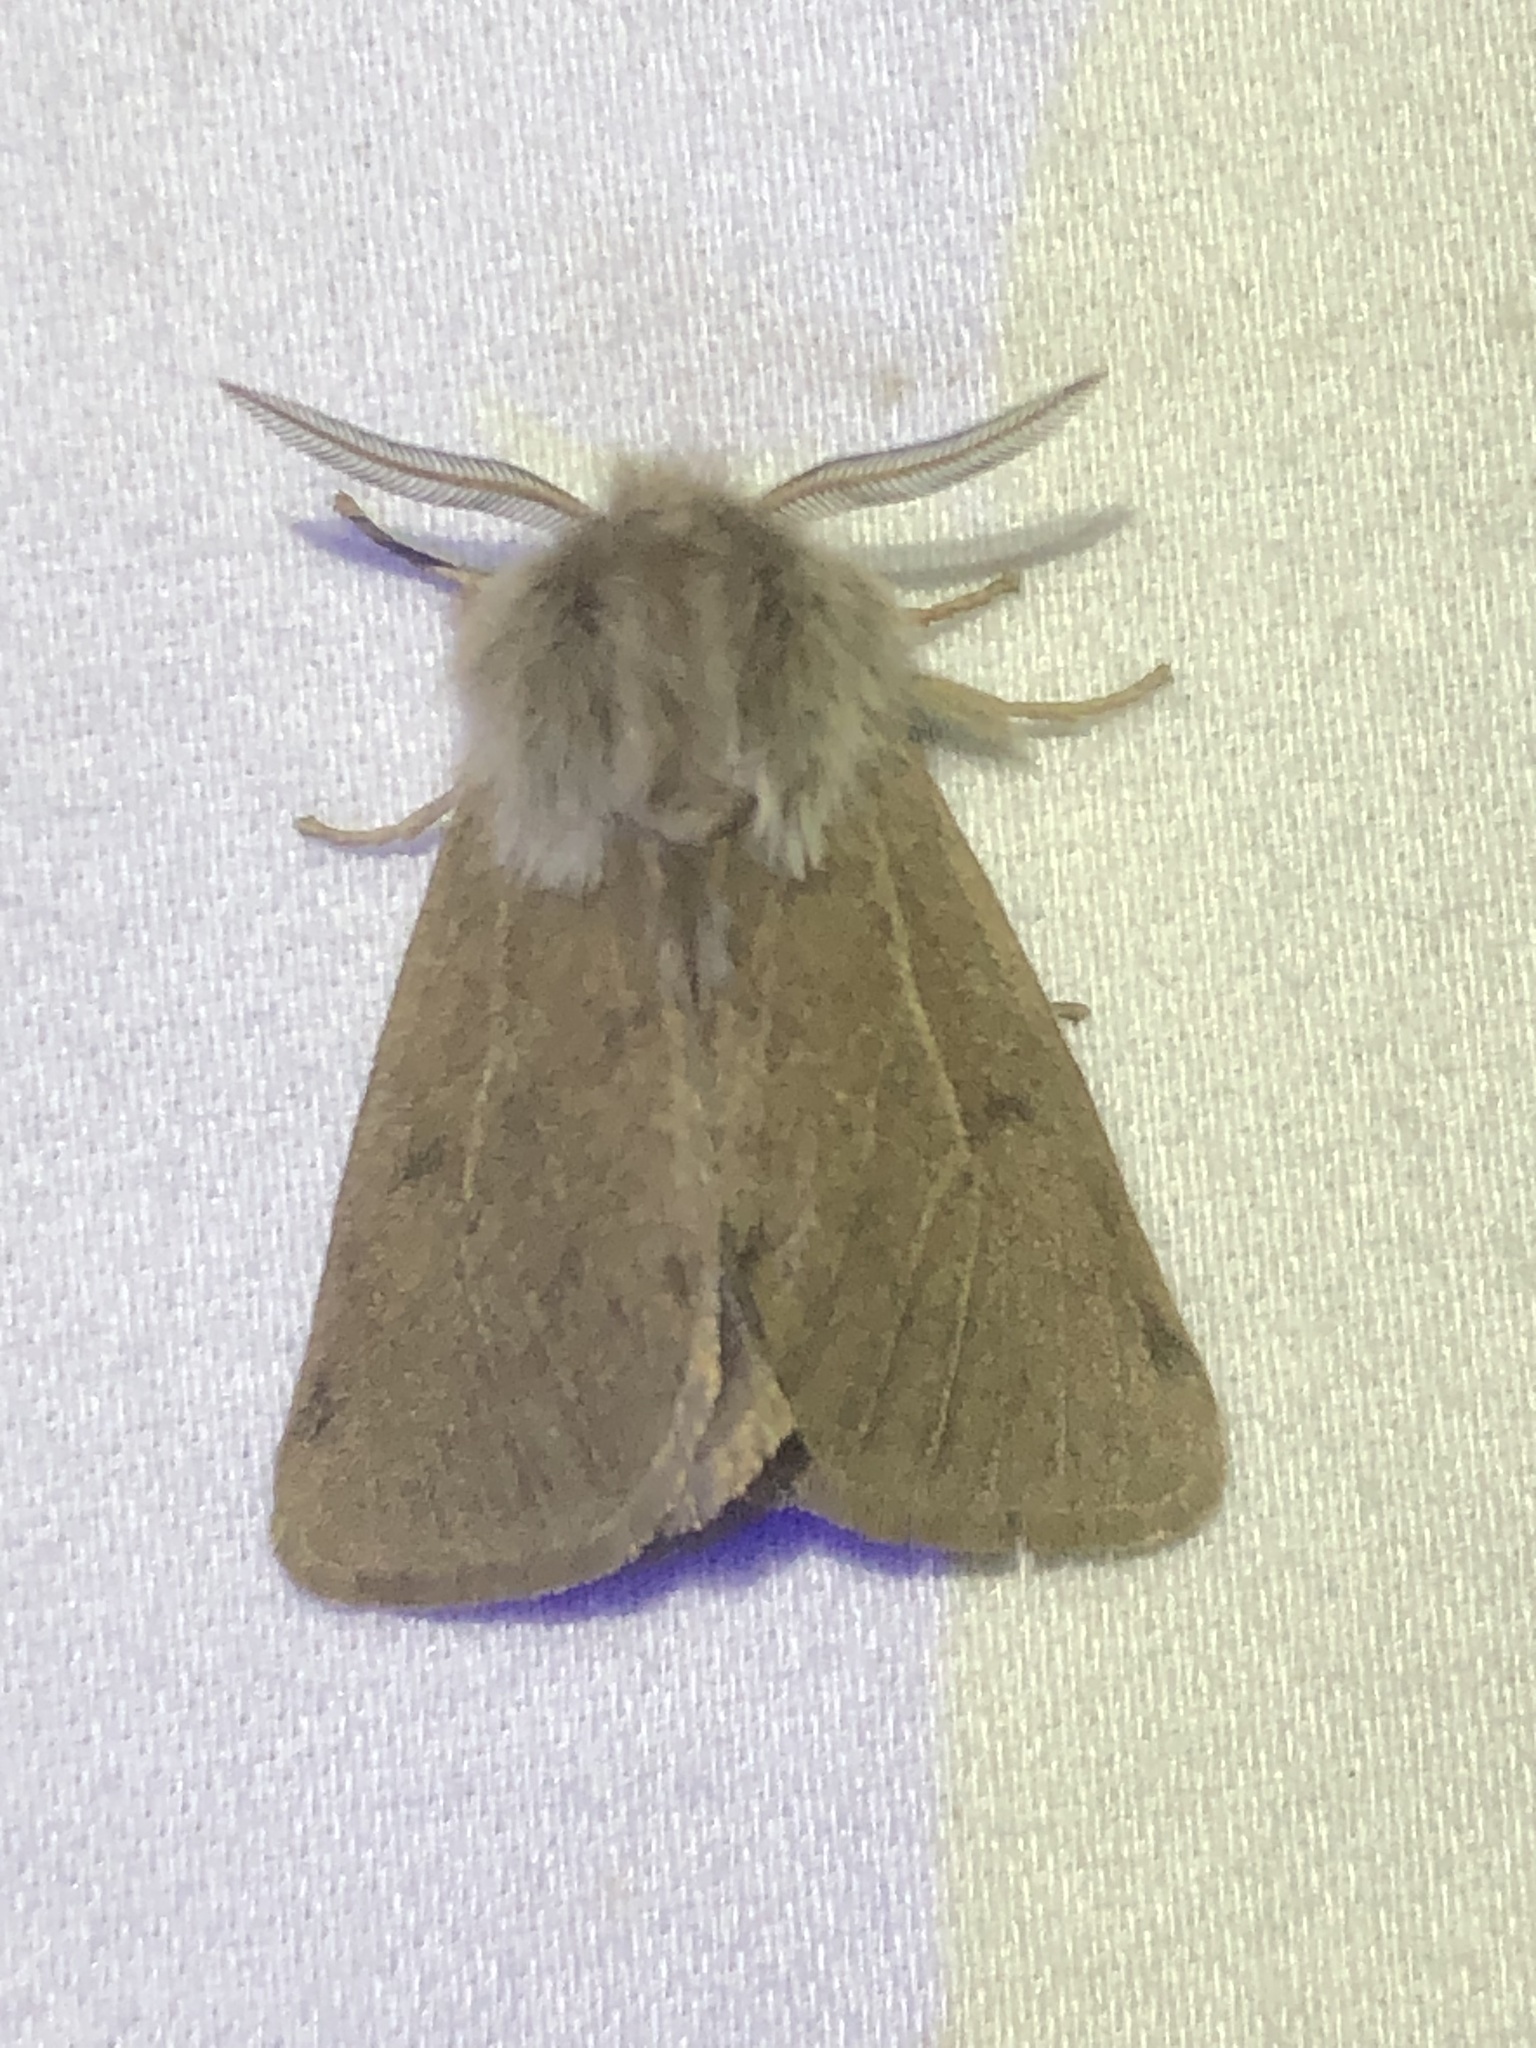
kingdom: Animalia
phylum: Arthropoda
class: Insecta
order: Lepidoptera
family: Erebidae
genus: Spilosoma
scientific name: Spilosoma vagans
